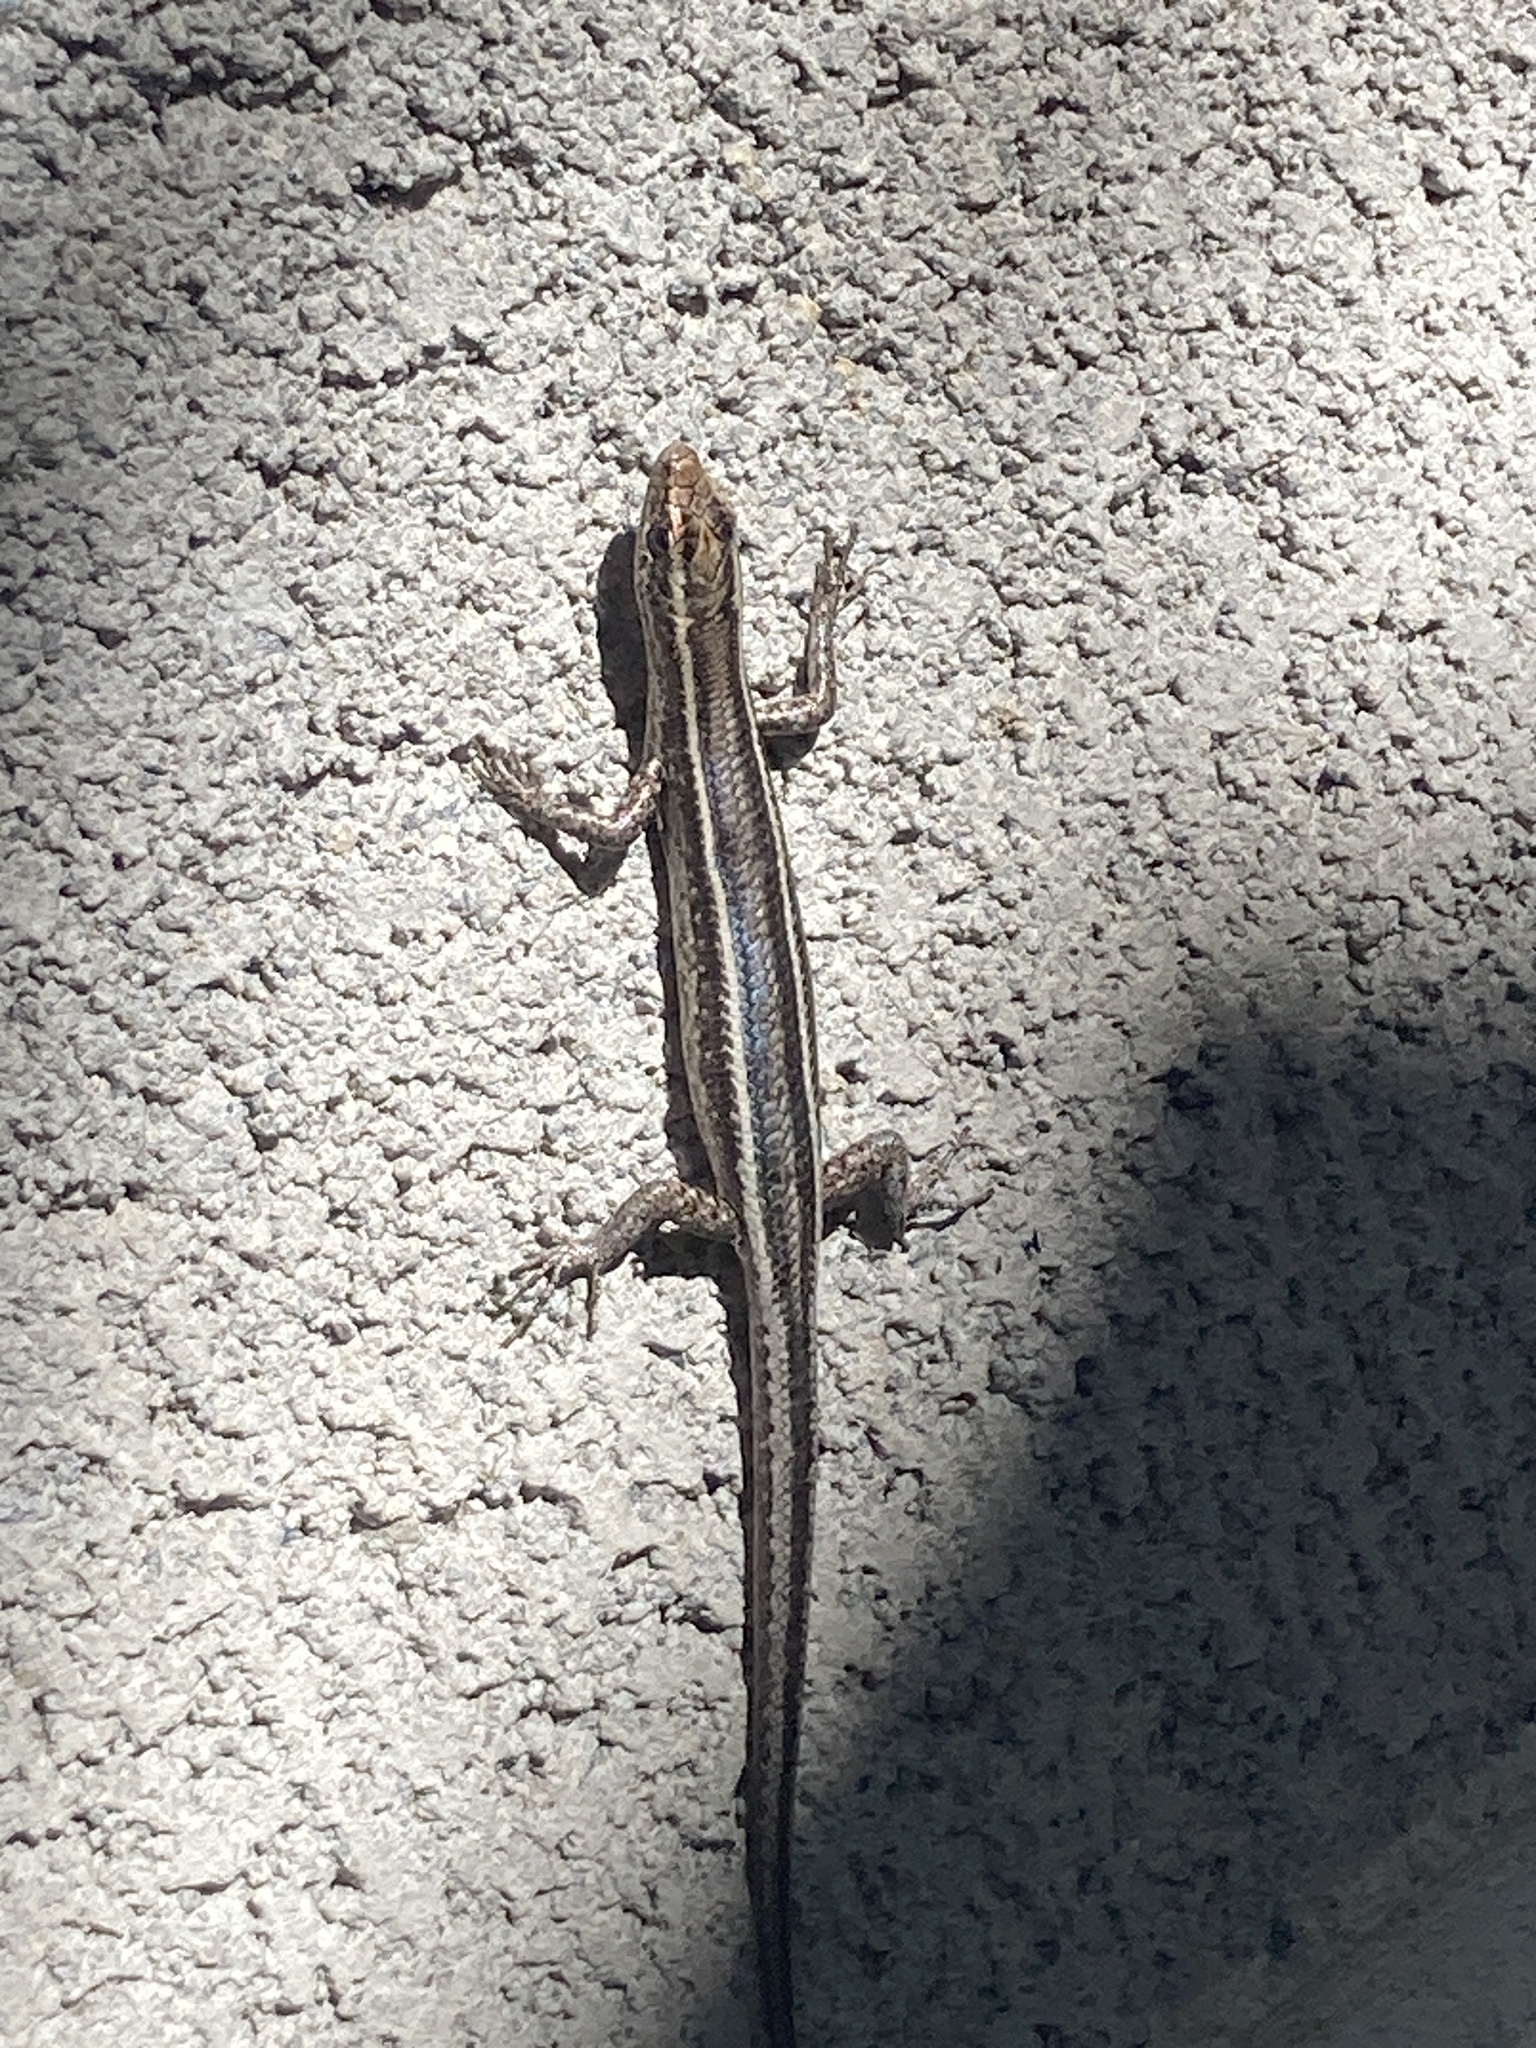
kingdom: Animalia
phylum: Chordata
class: Squamata
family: Scincidae
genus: Cryptoblepharus
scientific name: Cryptoblepharus pulcher
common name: Elegant snake-eyed skink
